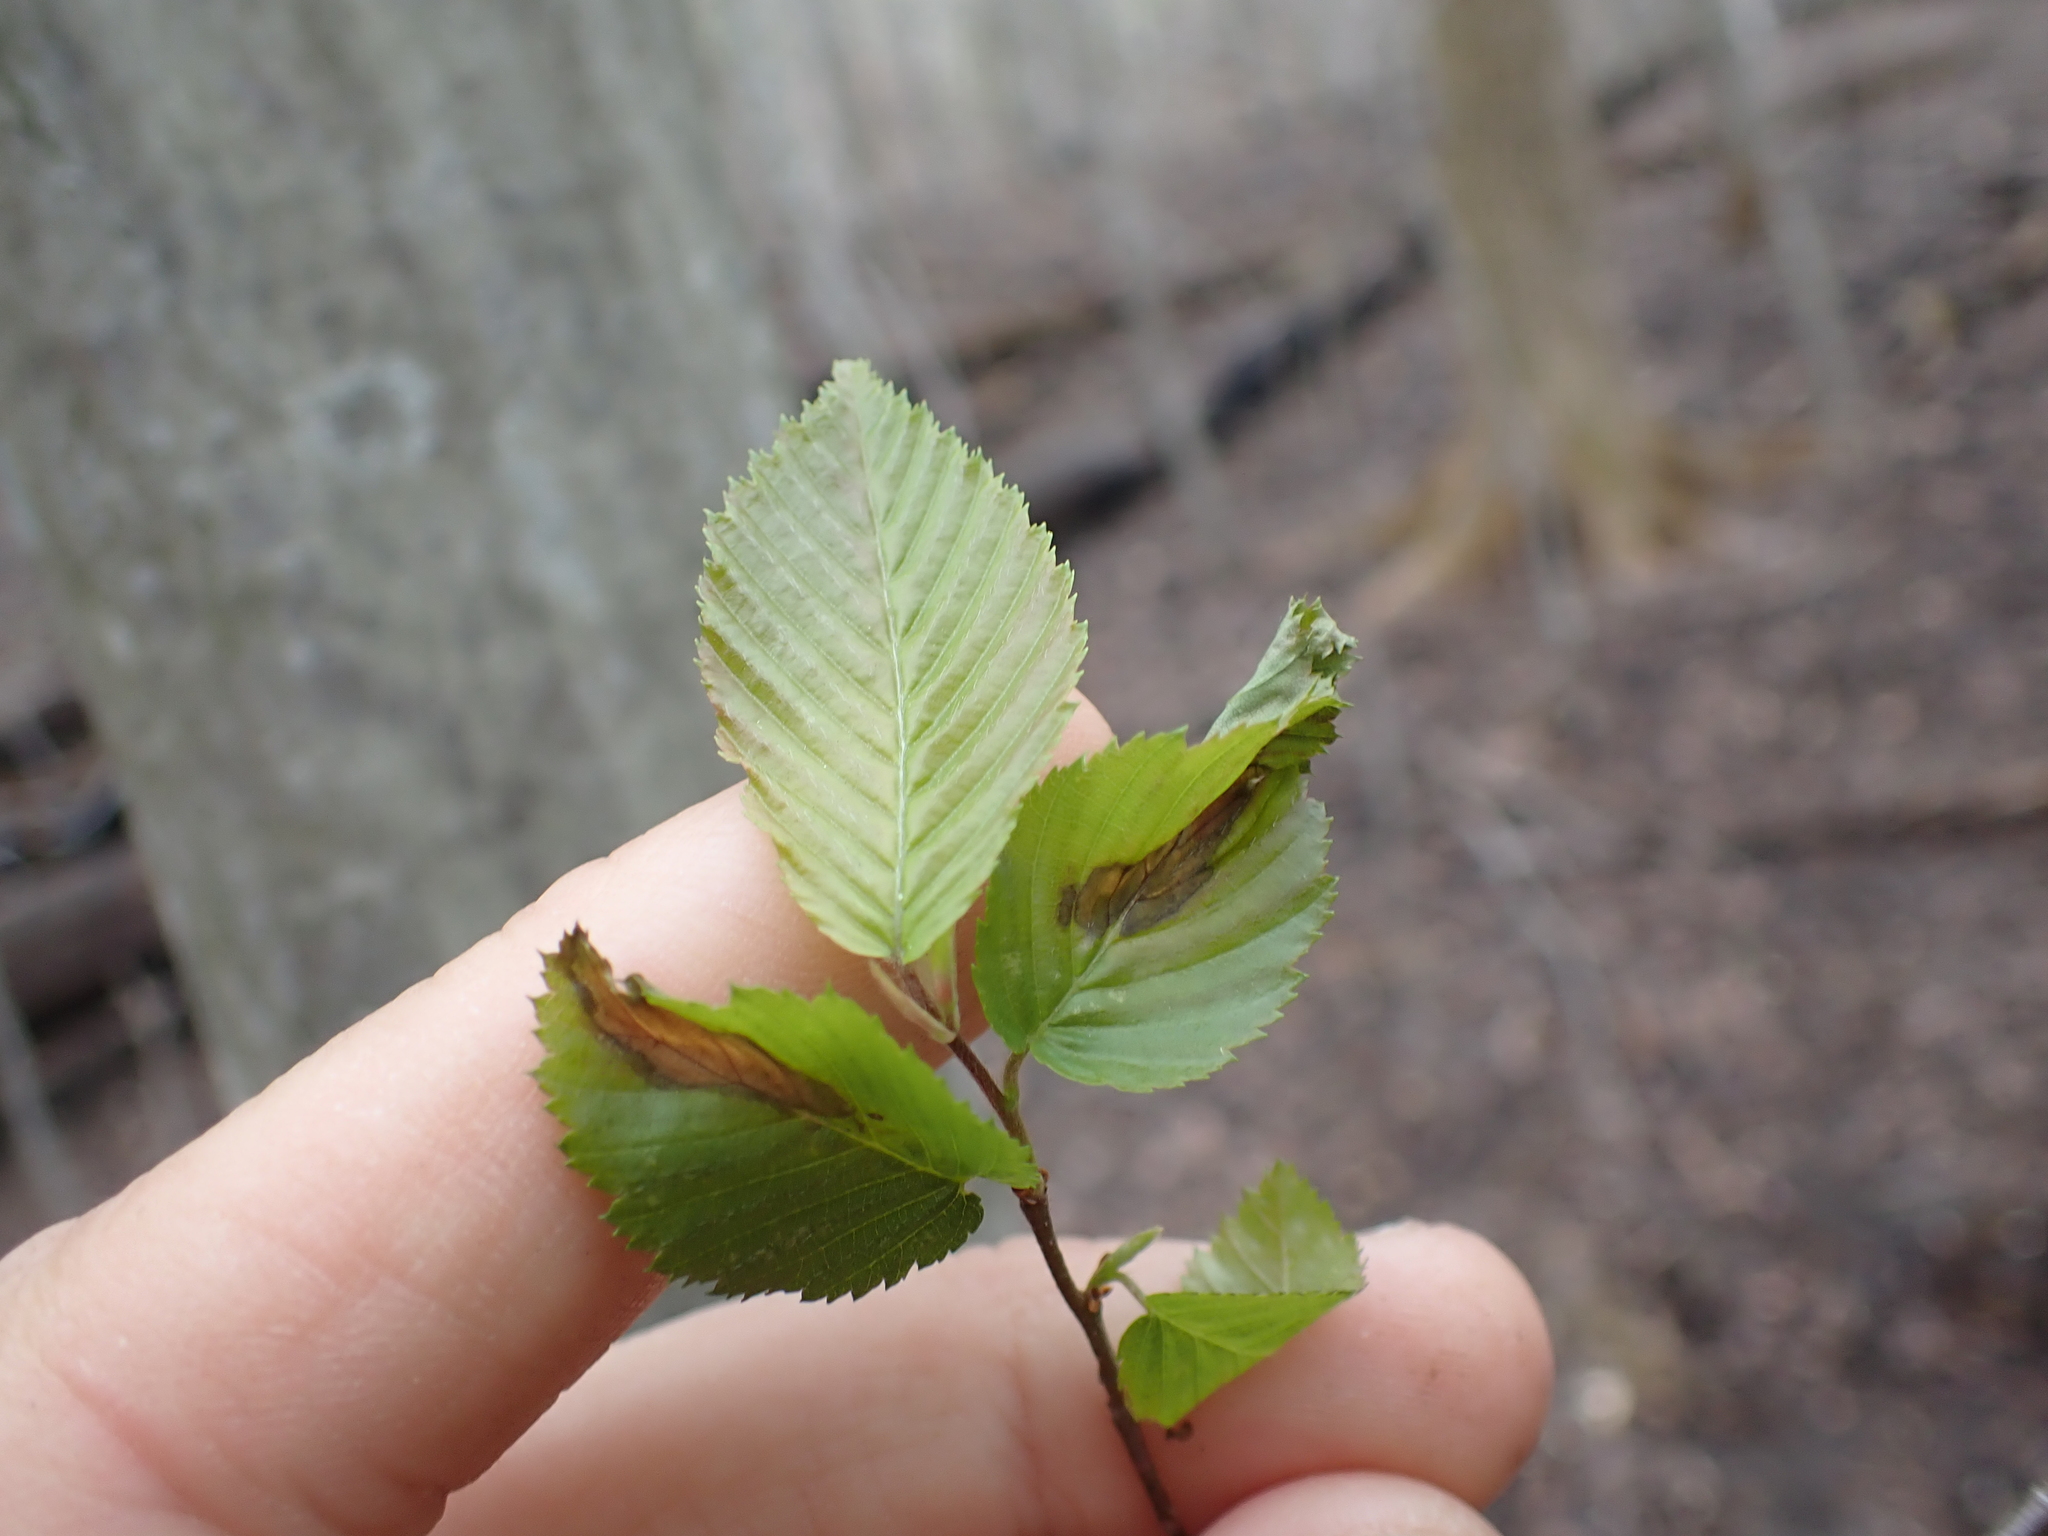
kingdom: Plantae
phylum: Tracheophyta
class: Magnoliopsida
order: Fagales
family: Betulaceae
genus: Carpinus
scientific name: Carpinus caroliniana
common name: American hornbeam
